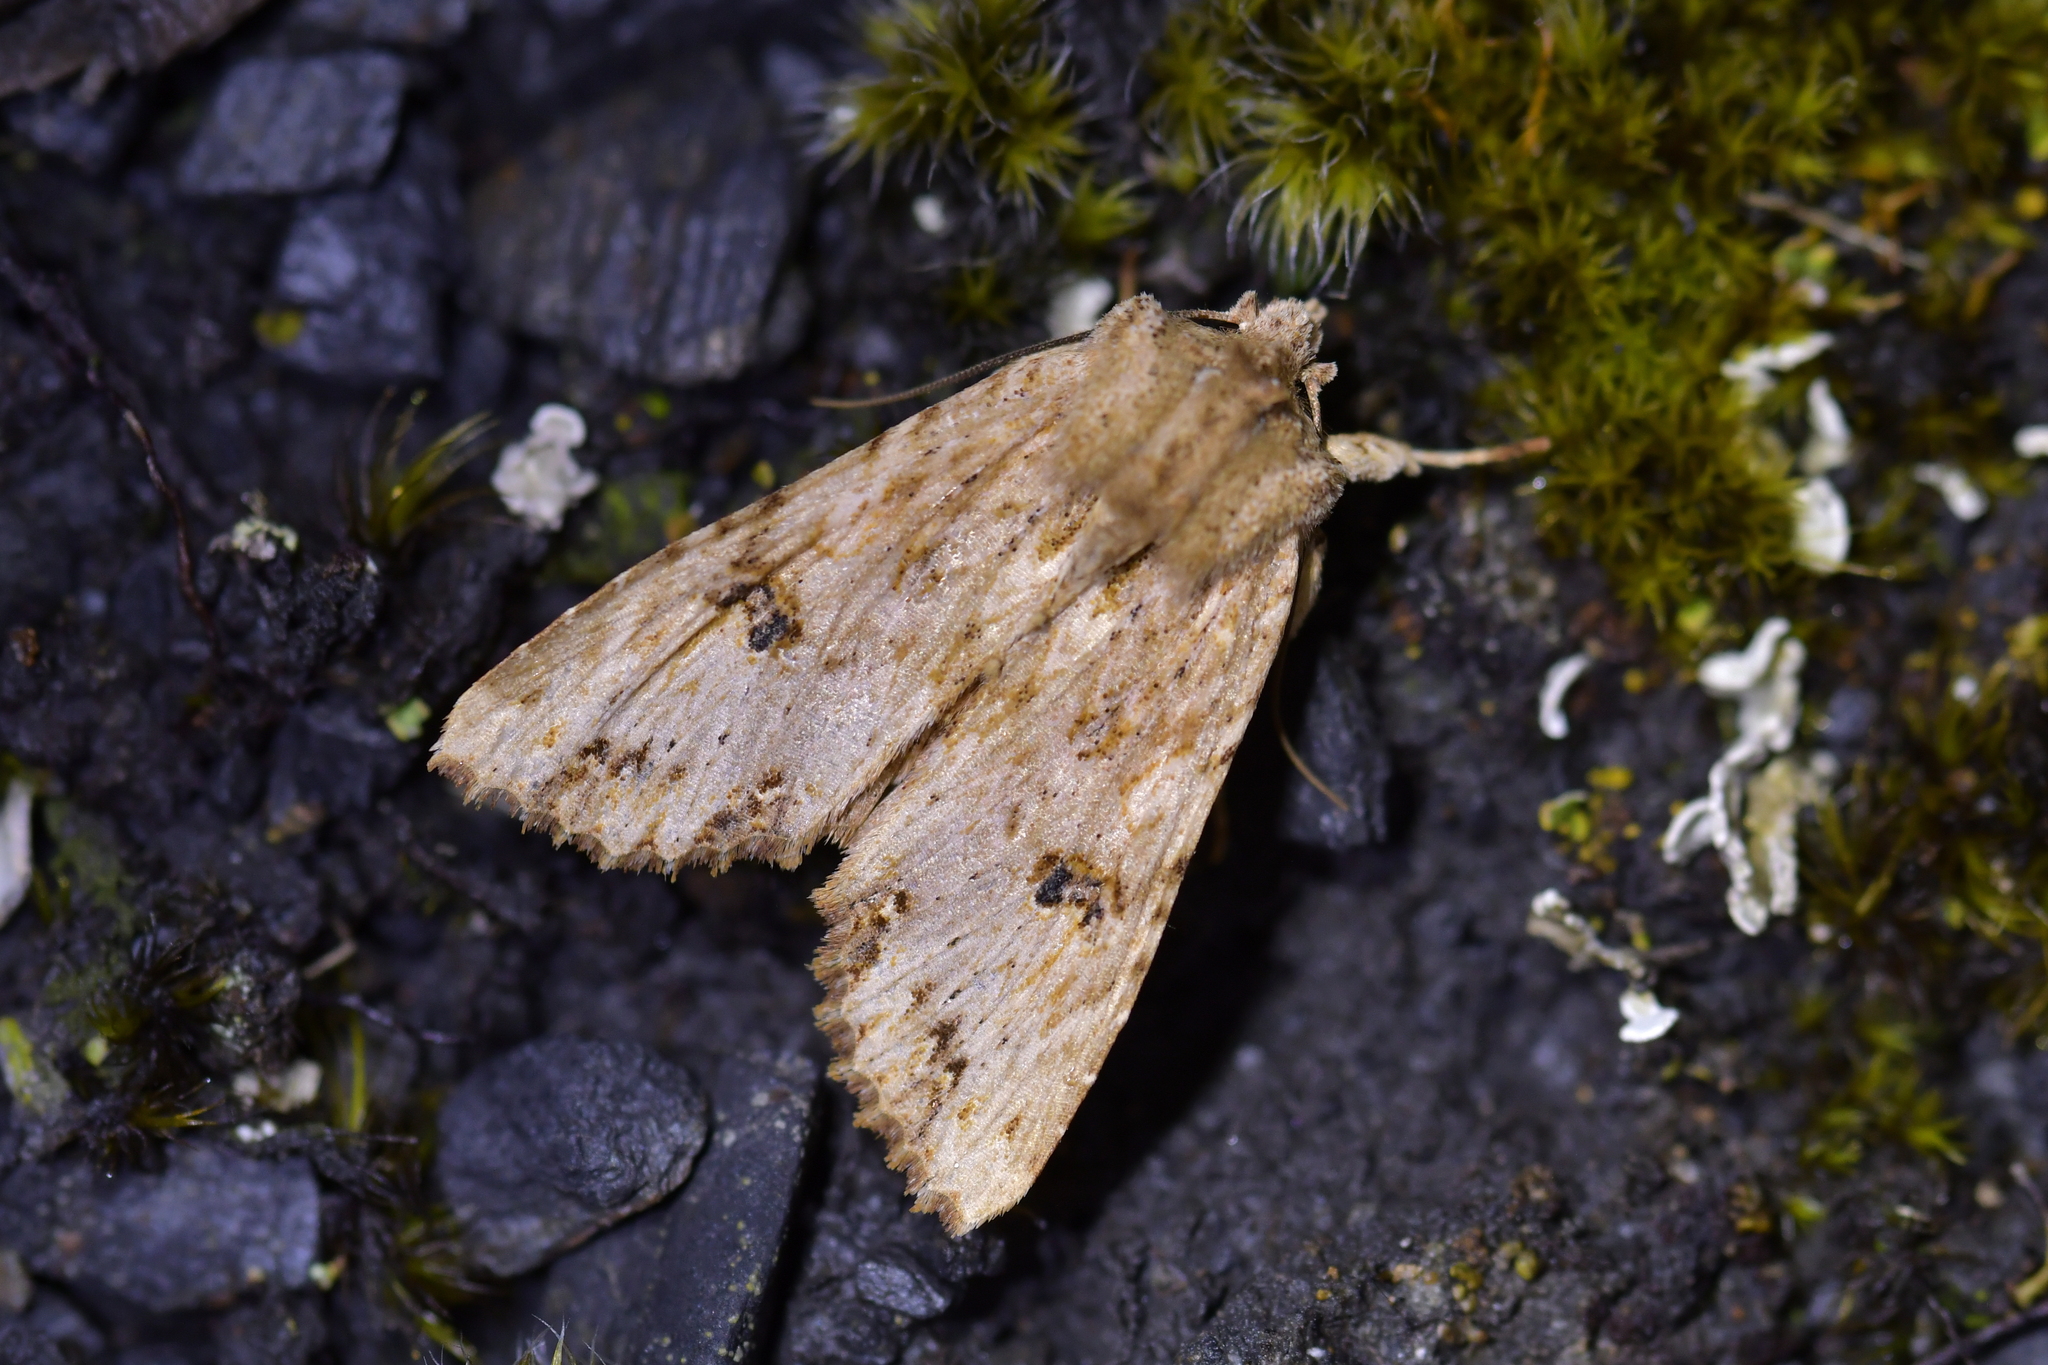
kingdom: Animalia
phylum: Arthropoda
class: Insecta
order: Lepidoptera
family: Noctuidae
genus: Meterana
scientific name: Meterana pascoei
